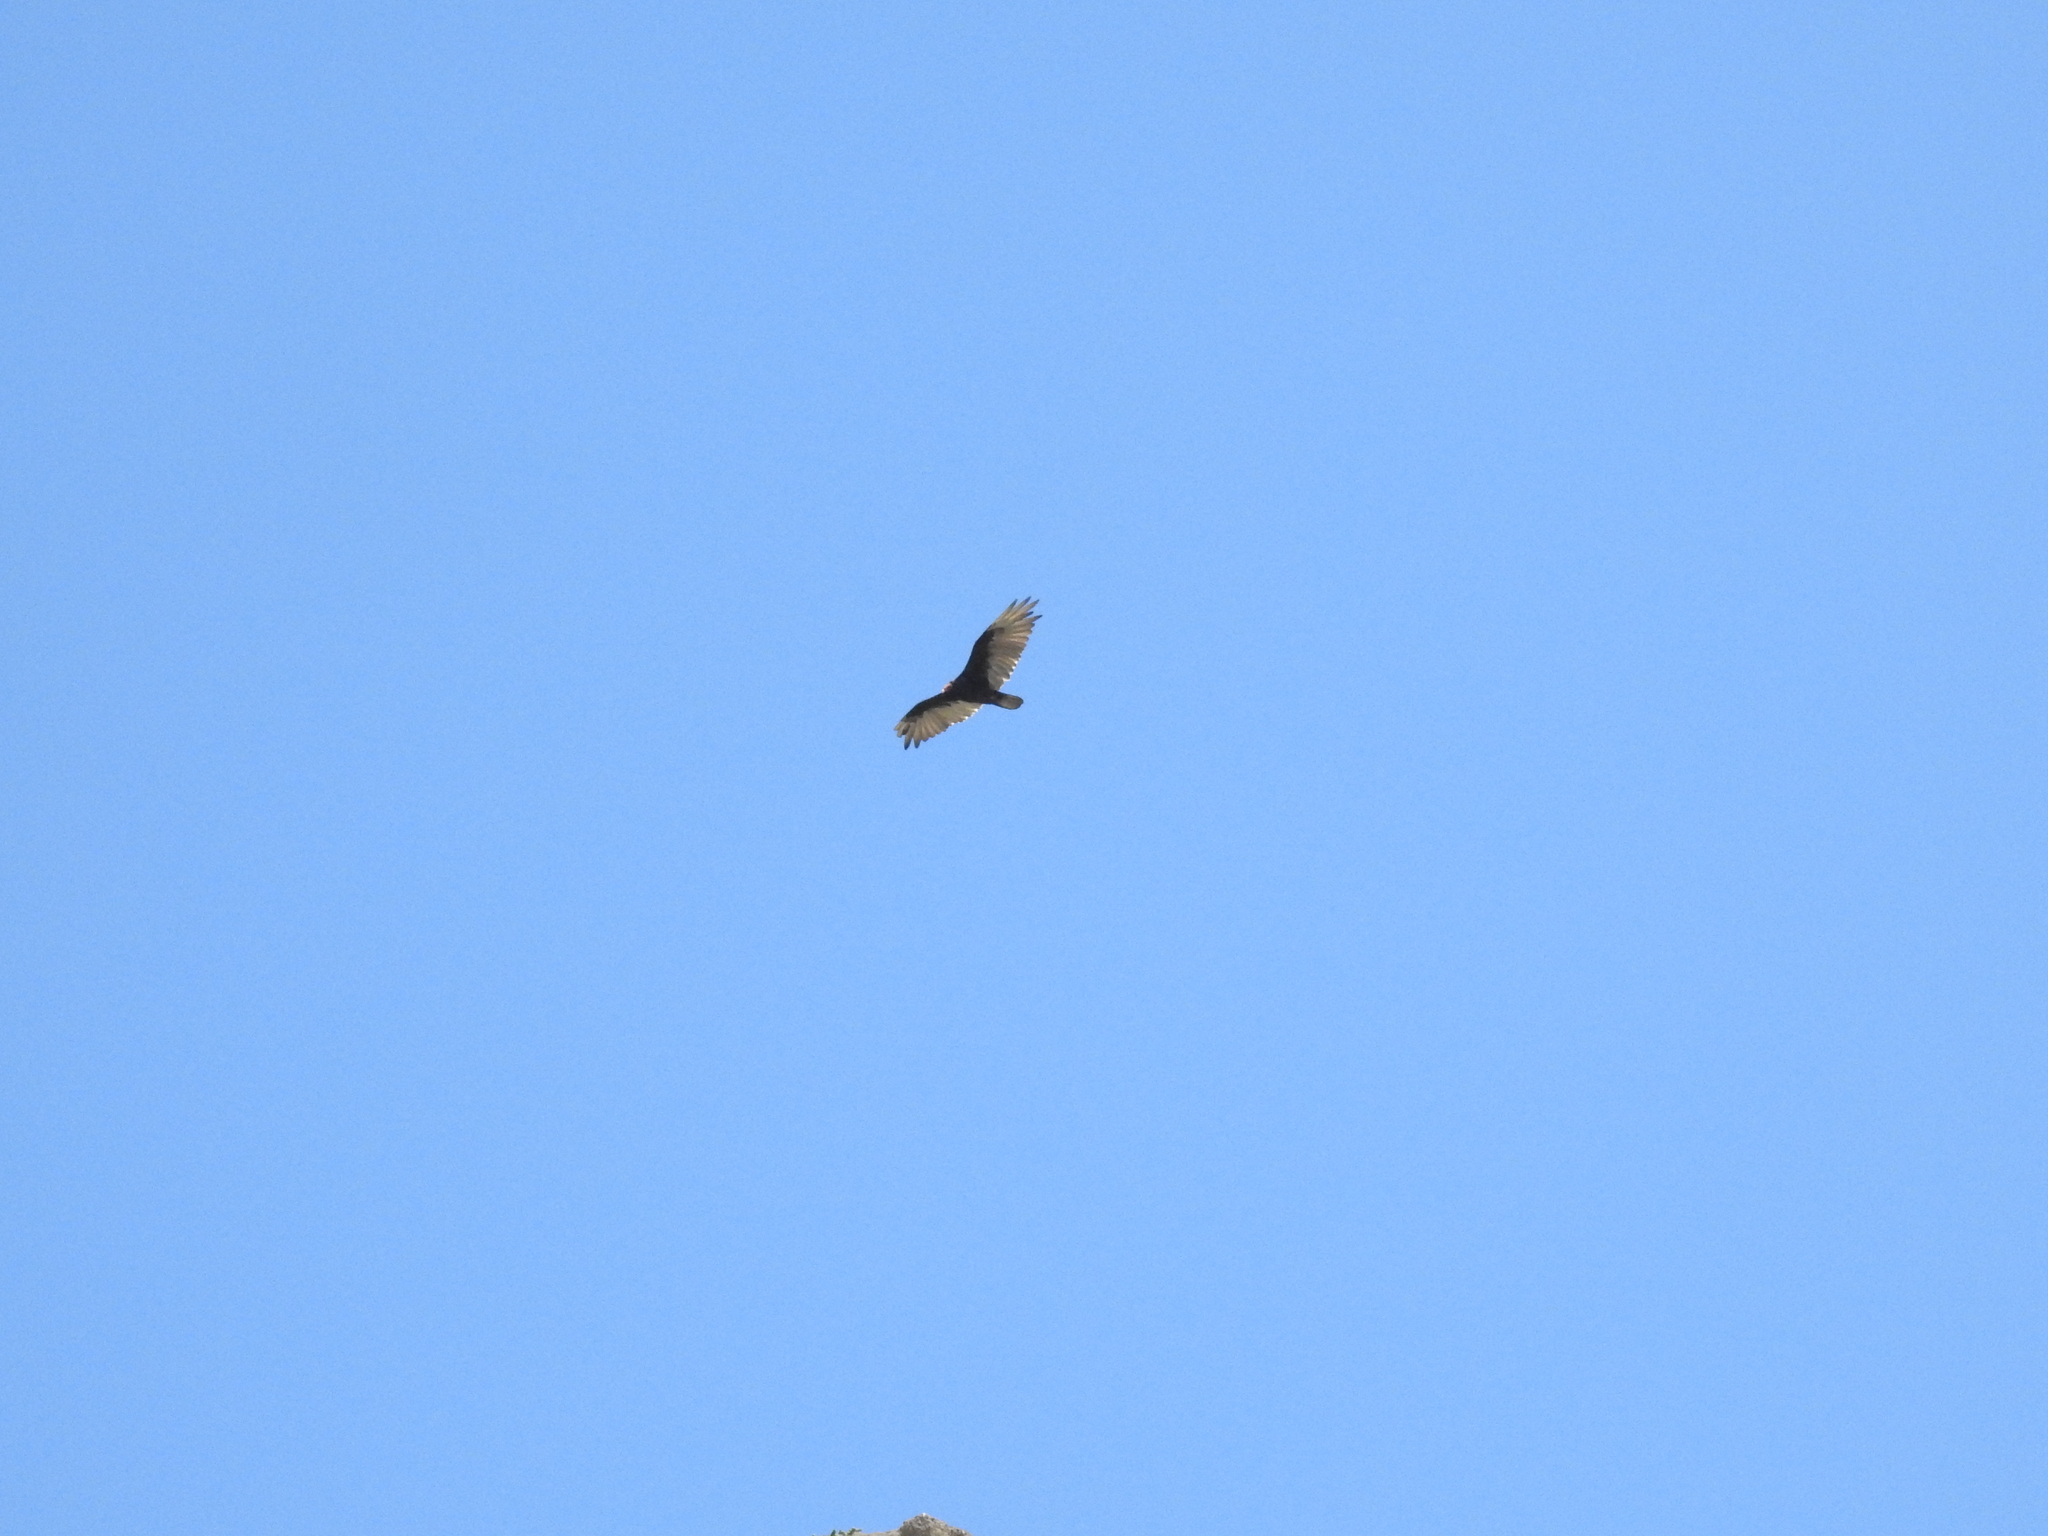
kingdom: Animalia
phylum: Chordata
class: Aves
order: Accipitriformes
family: Cathartidae
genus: Cathartes
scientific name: Cathartes aura
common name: Turkey vulture
